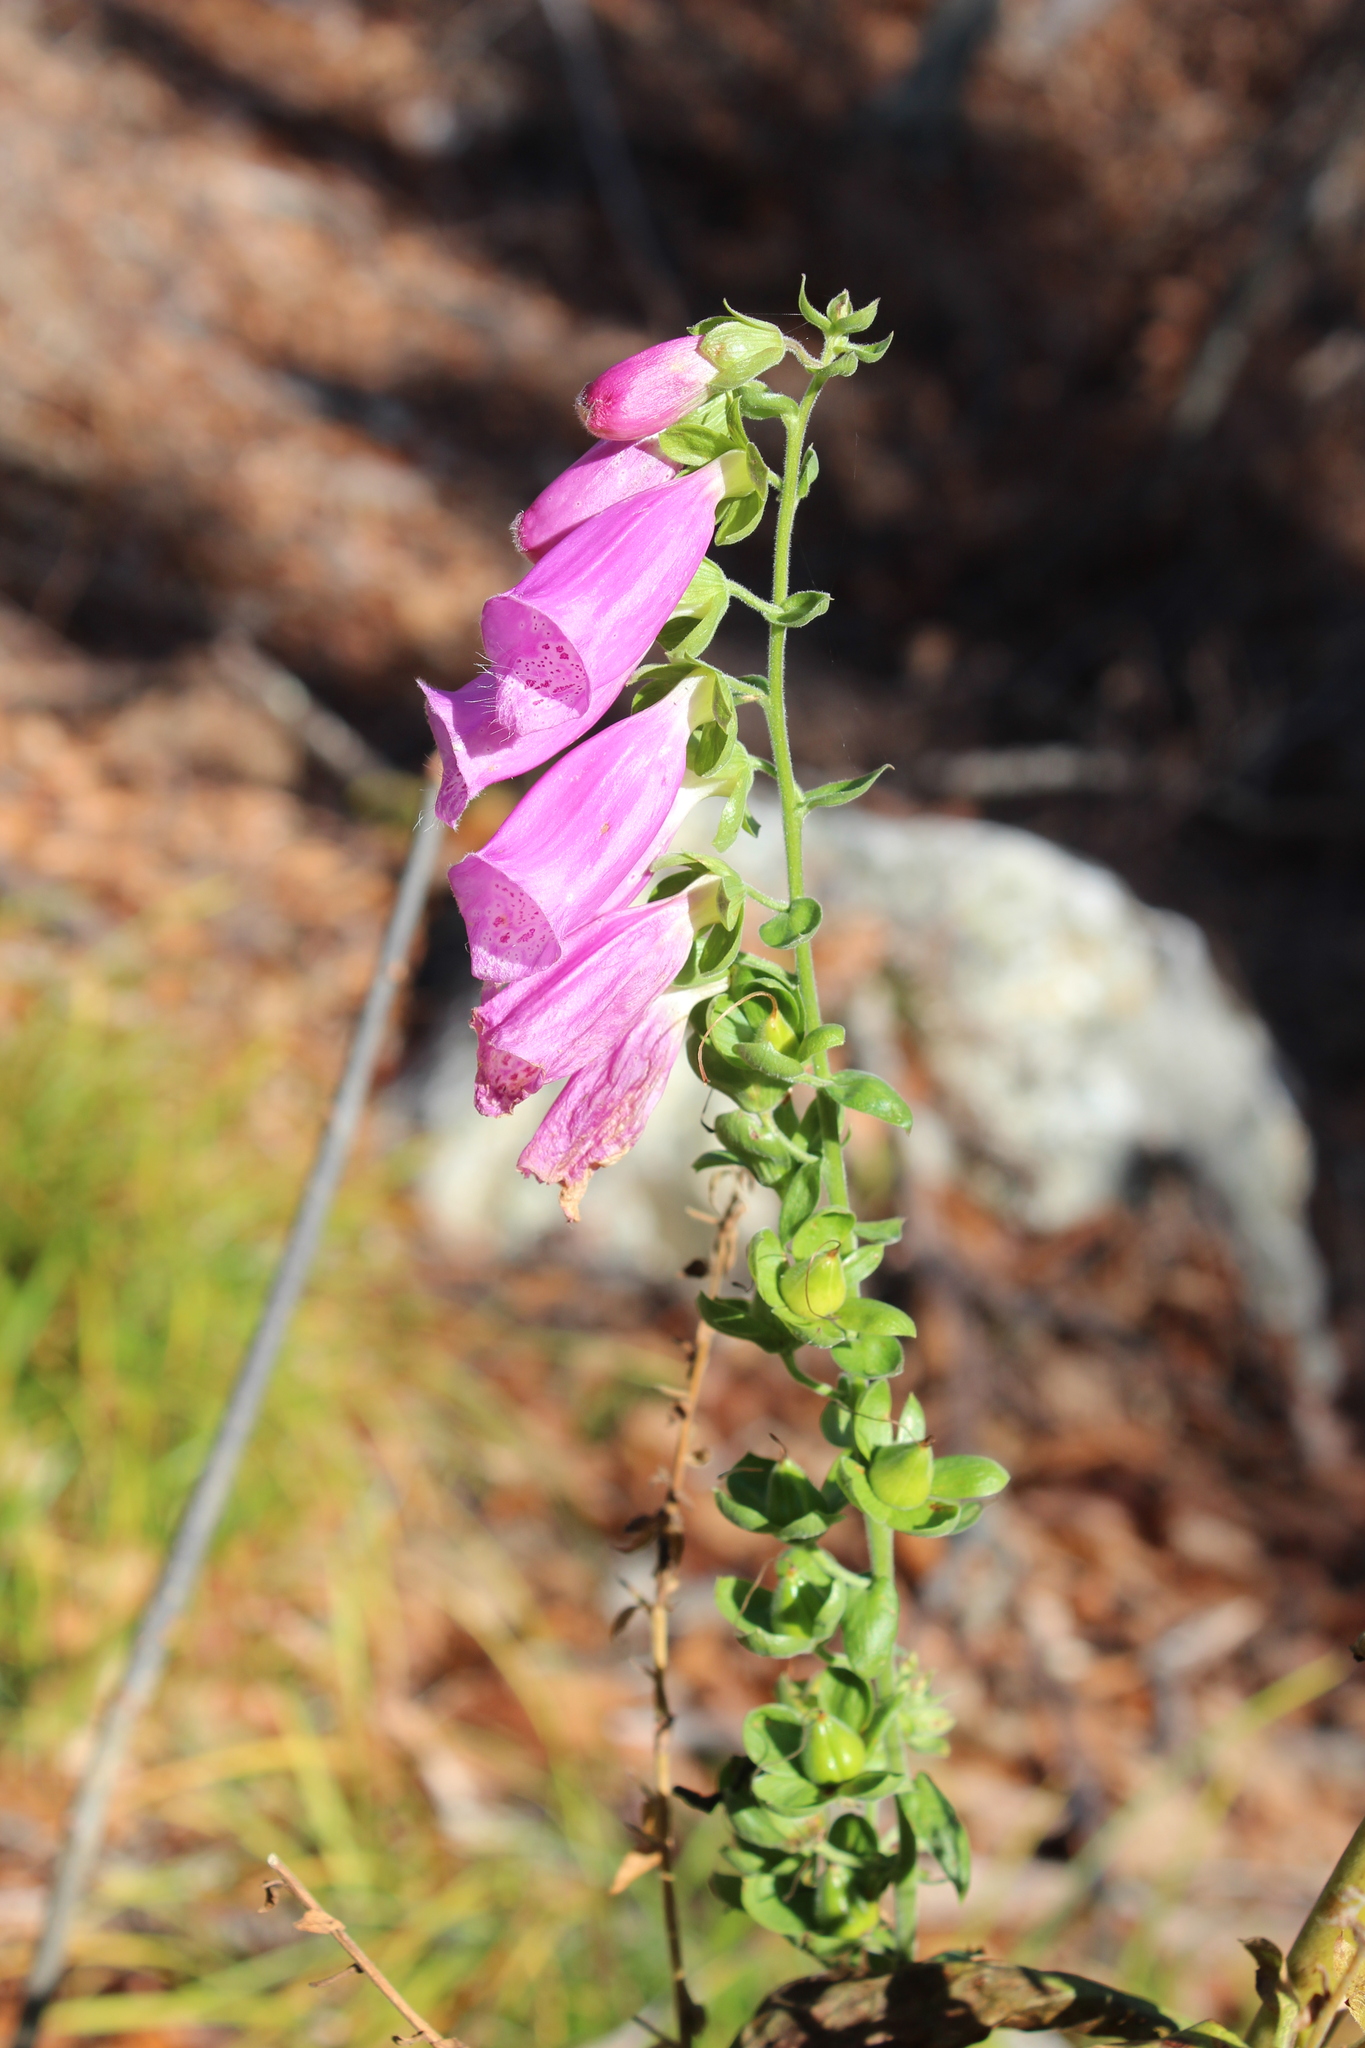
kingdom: Plantae
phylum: Tracheophyta
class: Magnoliopsida
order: Lamiales
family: Plantaginaceae
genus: Digitalis
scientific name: Digitalis purpurea
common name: Foxglove
